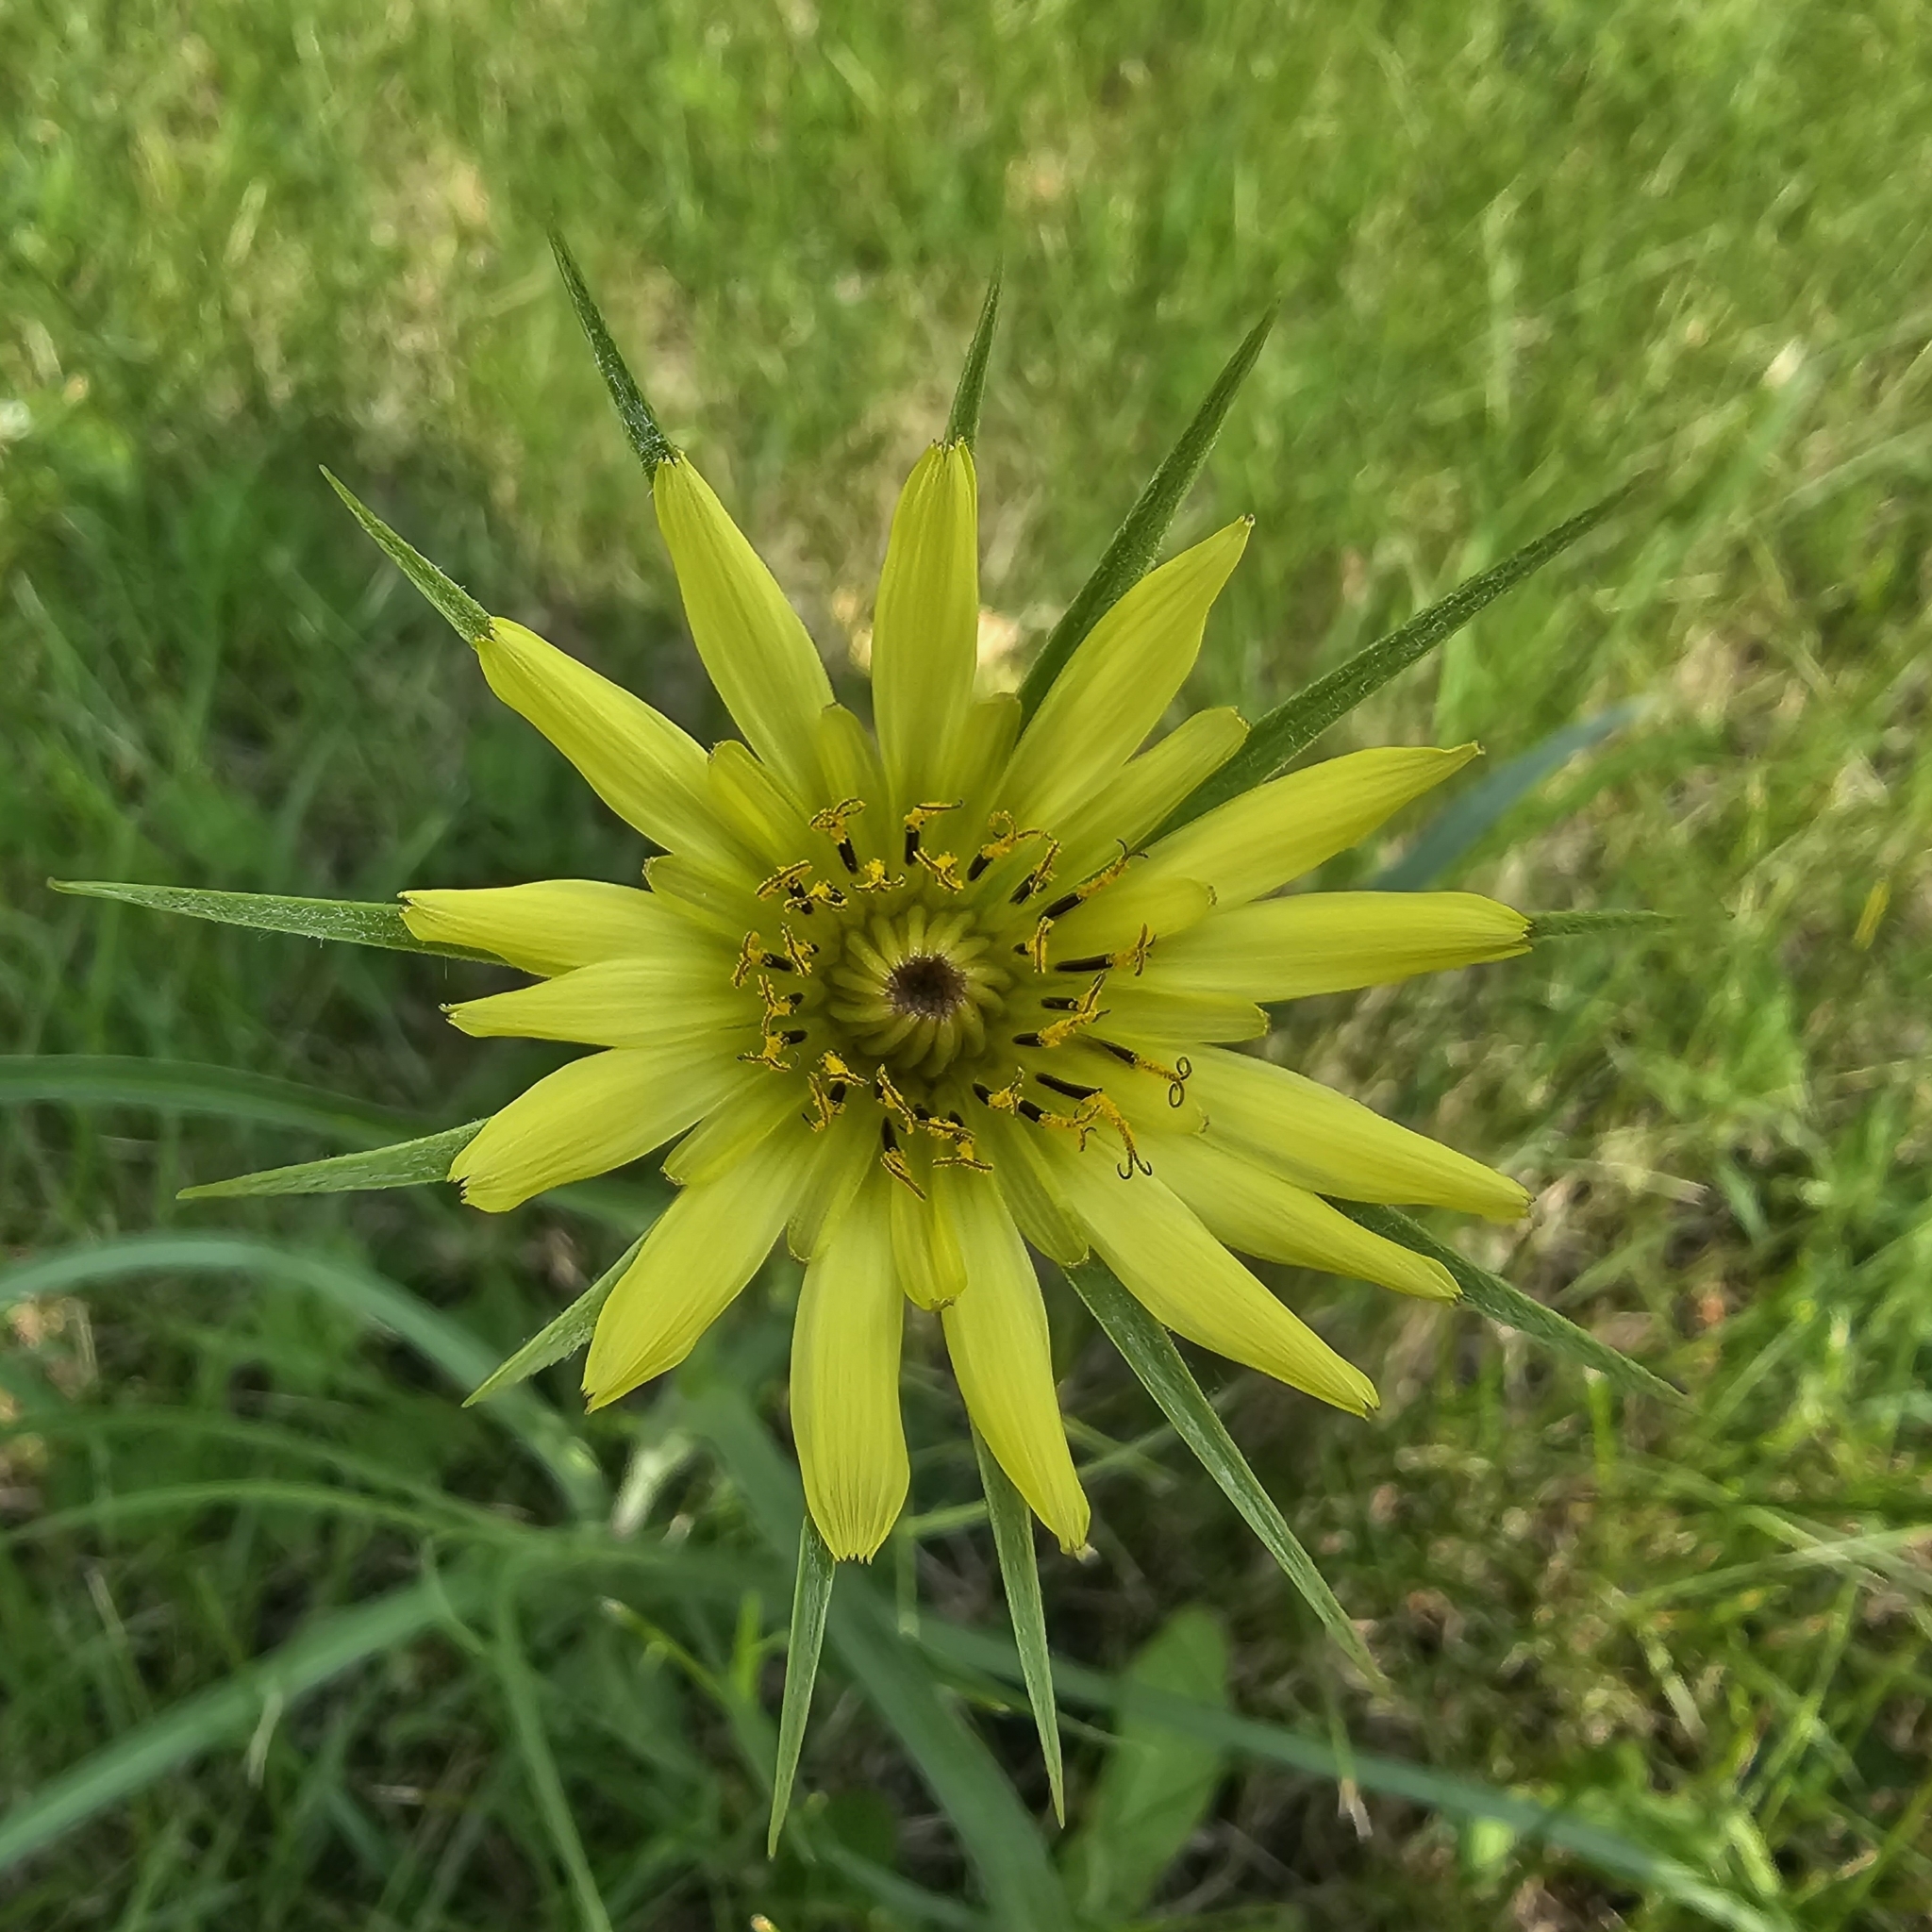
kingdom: Plantae
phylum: Tracheophyta
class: Magnoliopsida
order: Asterales
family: Asteraceae
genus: Tragopogon
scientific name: Tragopogon dubius
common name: Yellow salsify
